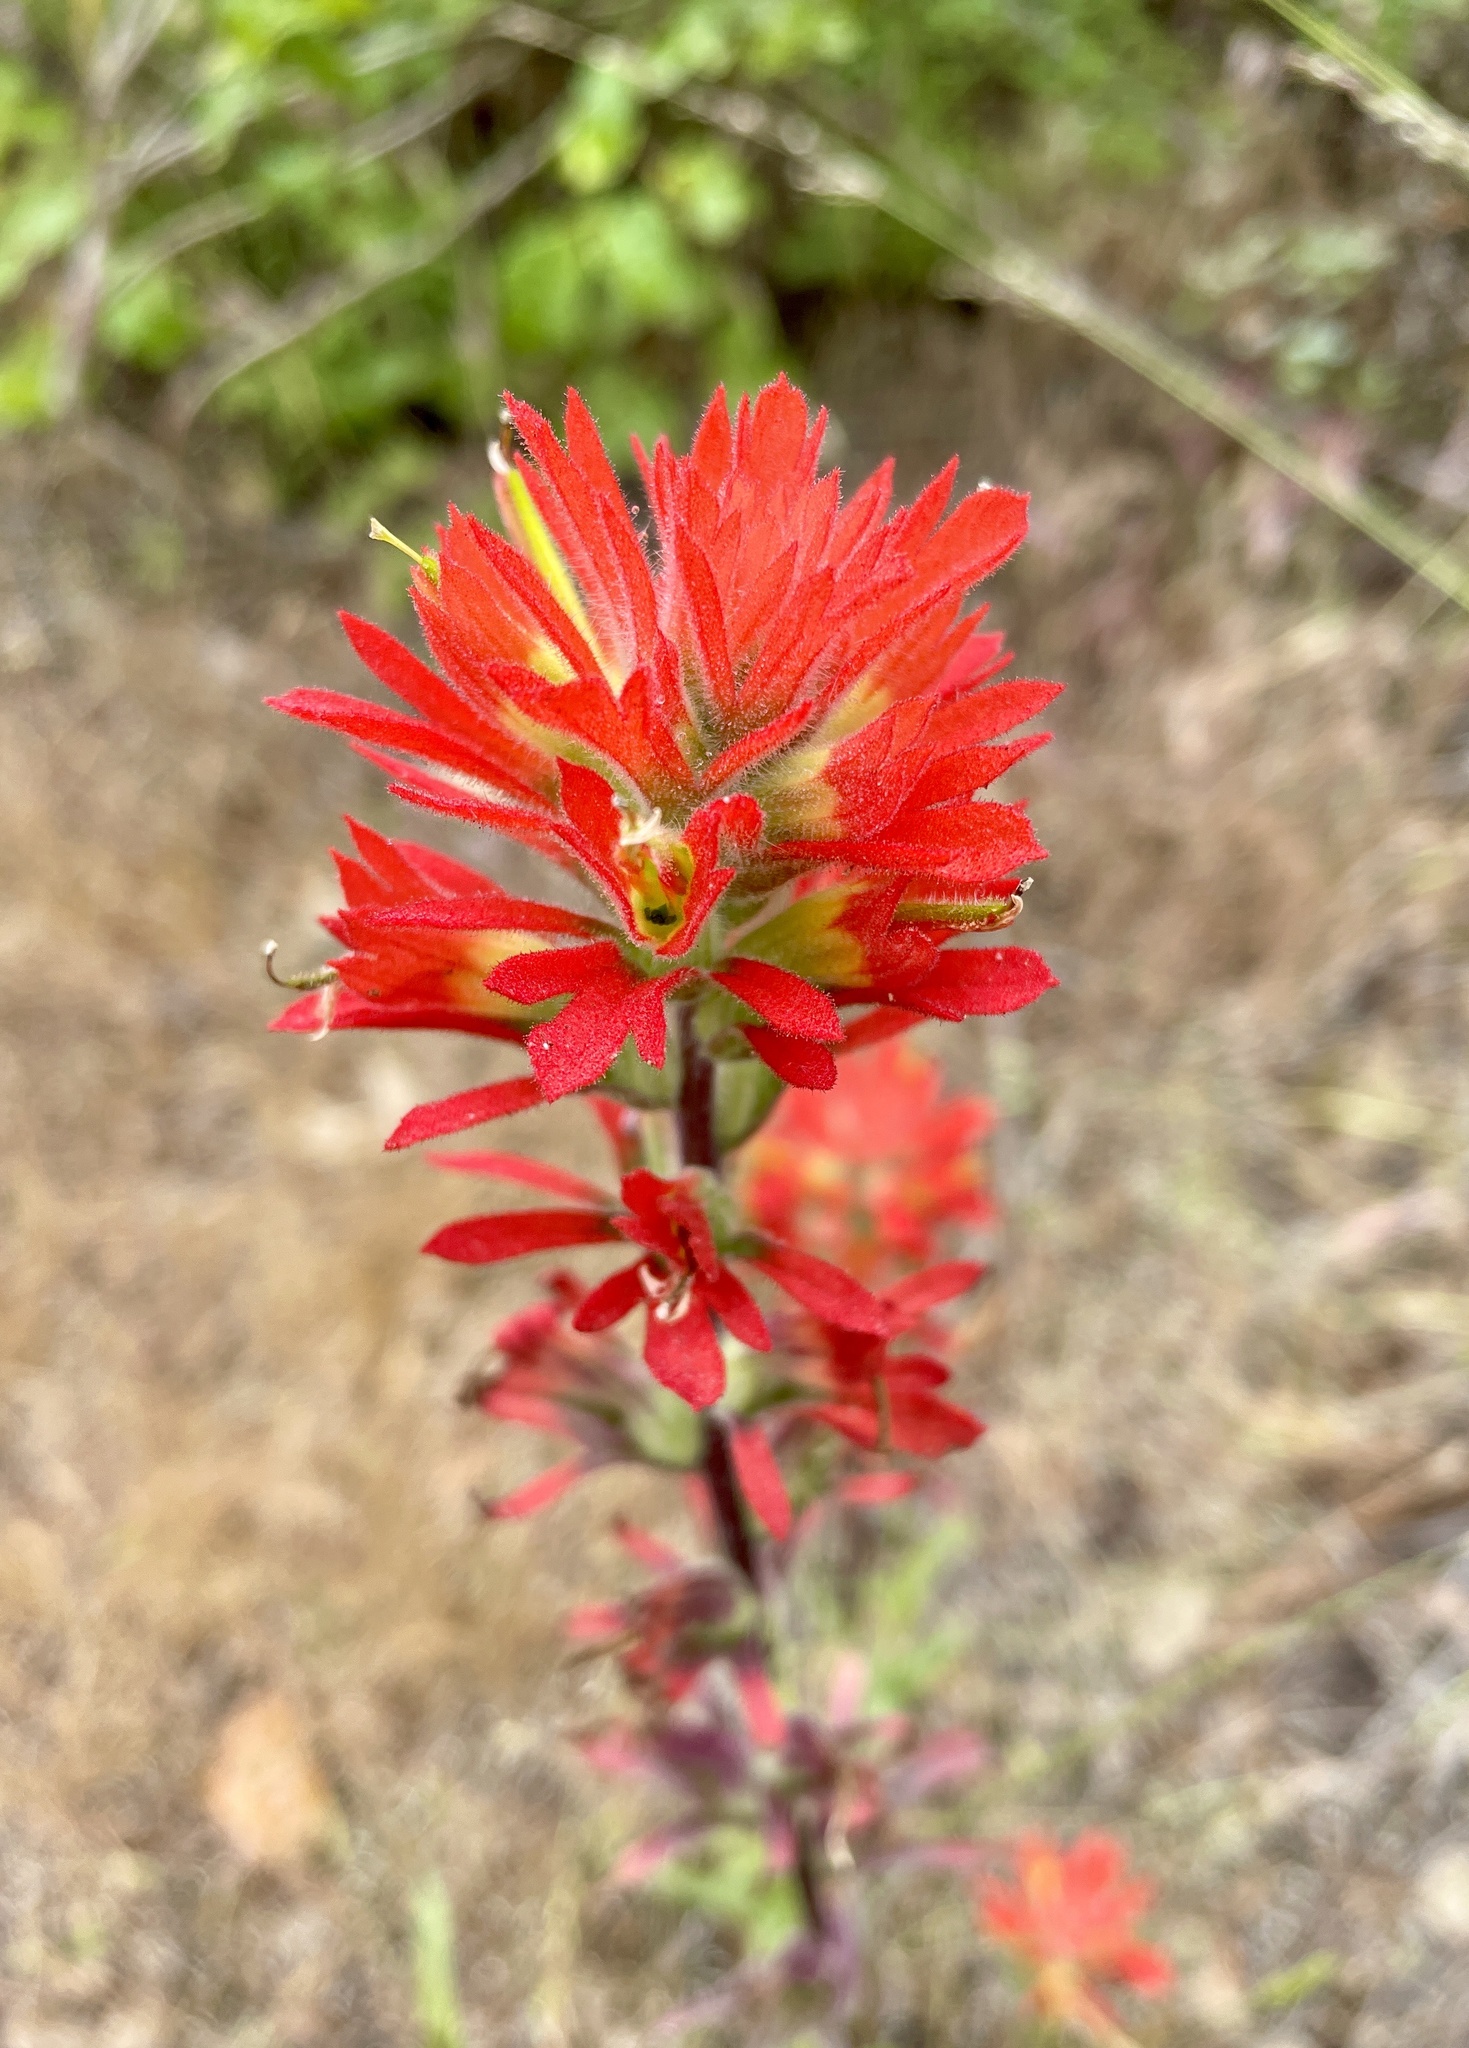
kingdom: Plantae
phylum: Tracheophyta
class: Magnoliopsida
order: Lamiales
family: Orobanchaceae
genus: Castilleja
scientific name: Castilleja affinis
